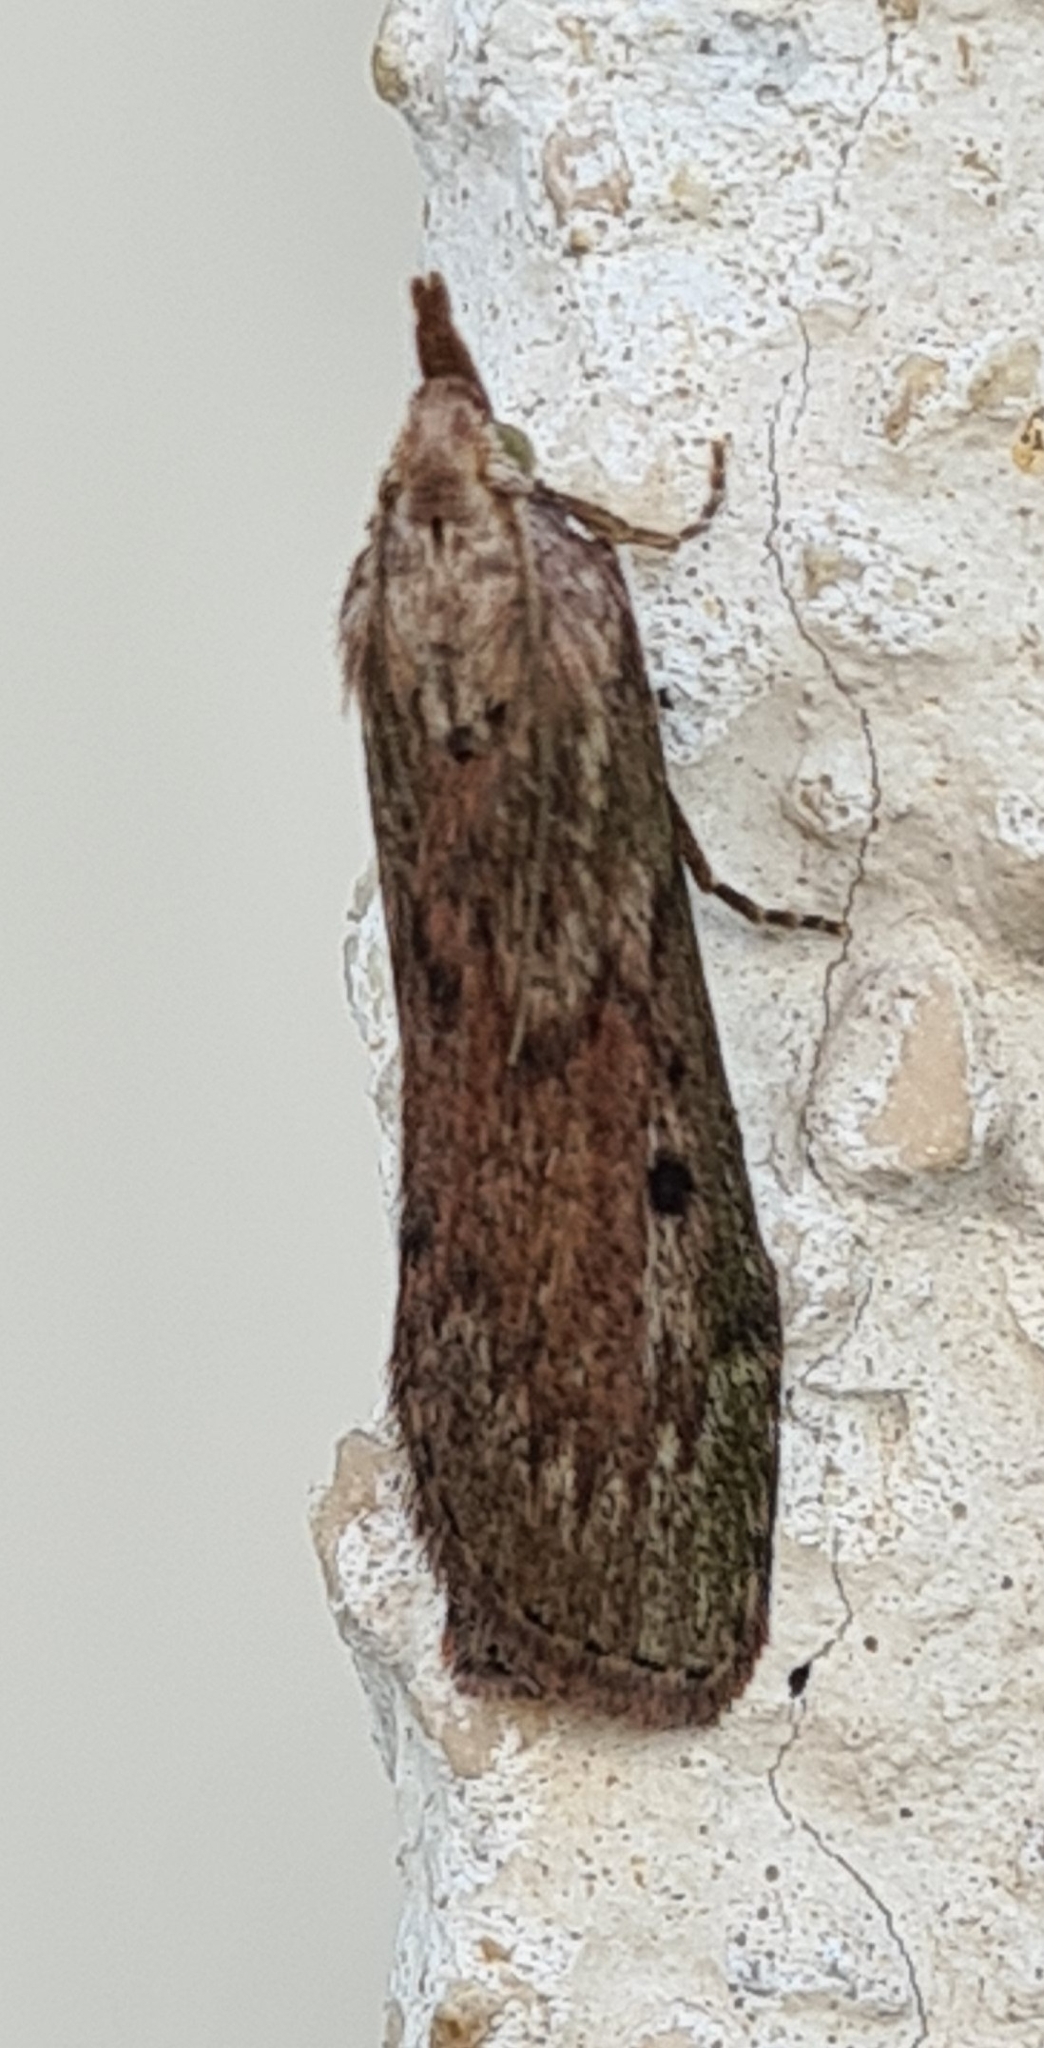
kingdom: Animalia
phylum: Arthropoda
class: Insecta
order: Lepidoptera
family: Pyralidae
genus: Aphomia
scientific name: Aphomia sociella
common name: Bee moth
